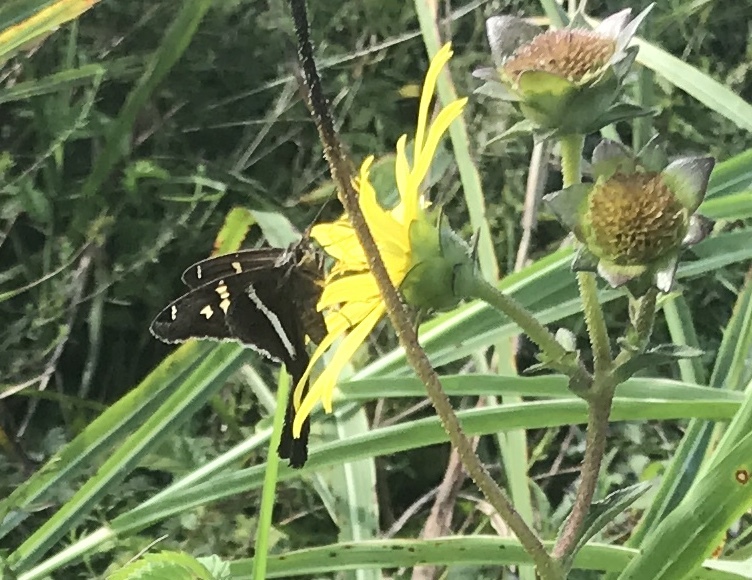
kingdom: Animalia
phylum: Arthropoda
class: Insecta
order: Lepidoptera
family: Hesperiidae
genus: Chioides
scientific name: Chioides catillus
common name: Silverbanded skipper
